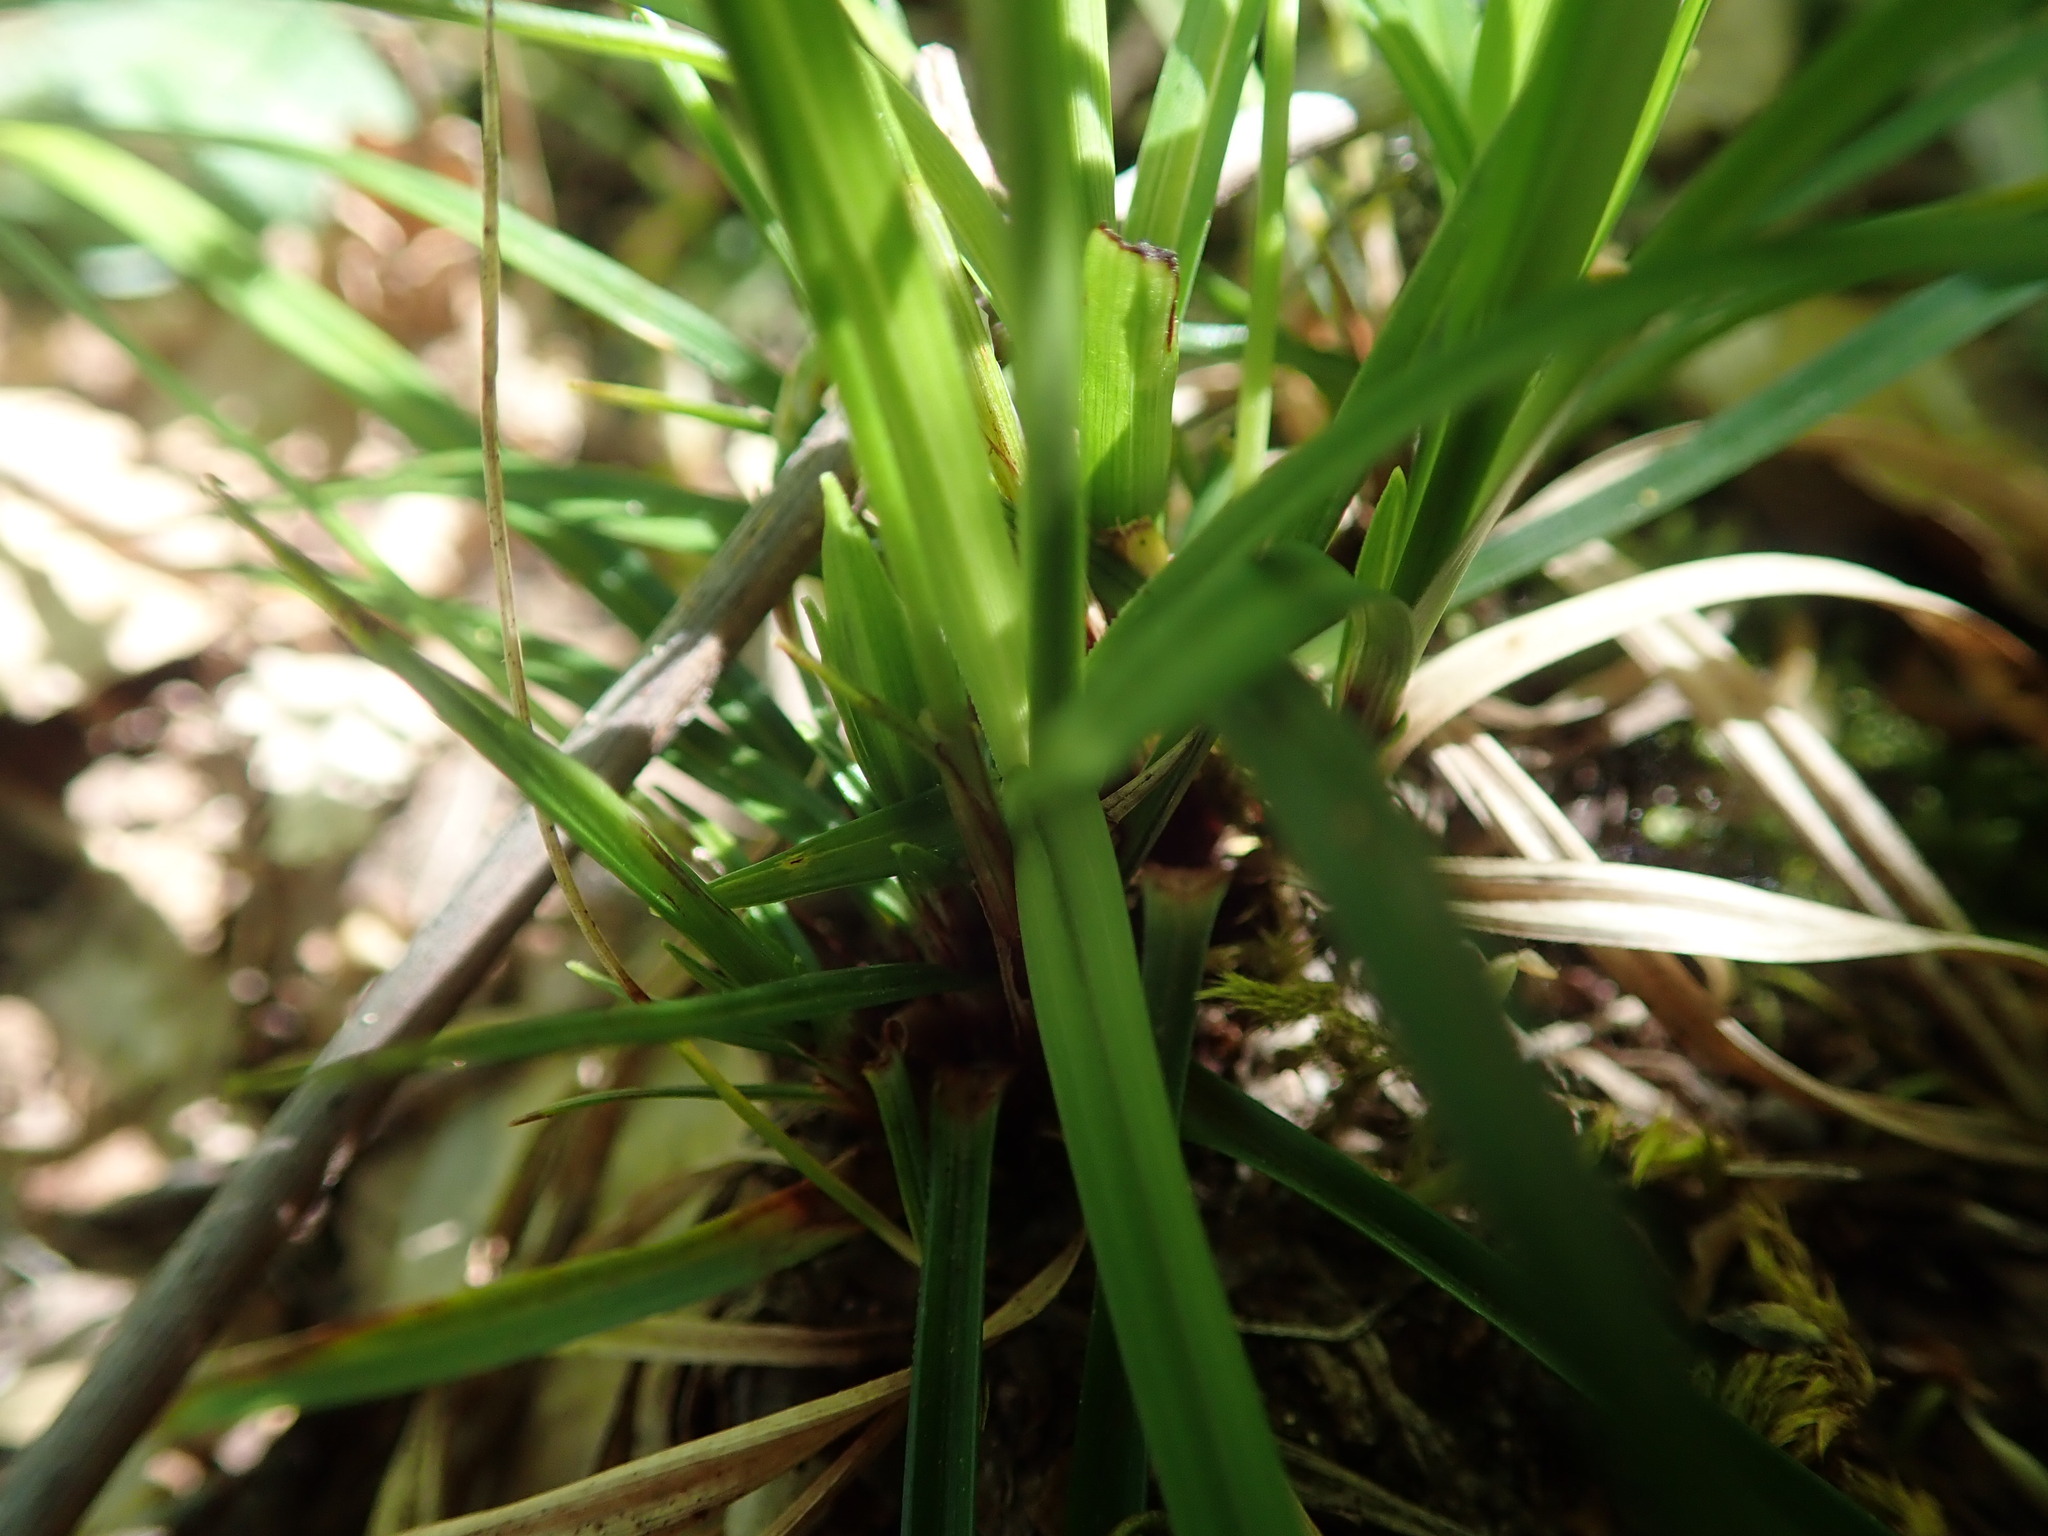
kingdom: Plantae
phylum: Tracheophyta
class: Liliopsida
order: Poales
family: Cyperaceae
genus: Carex
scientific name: Carex digitata
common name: Fingered sedge
